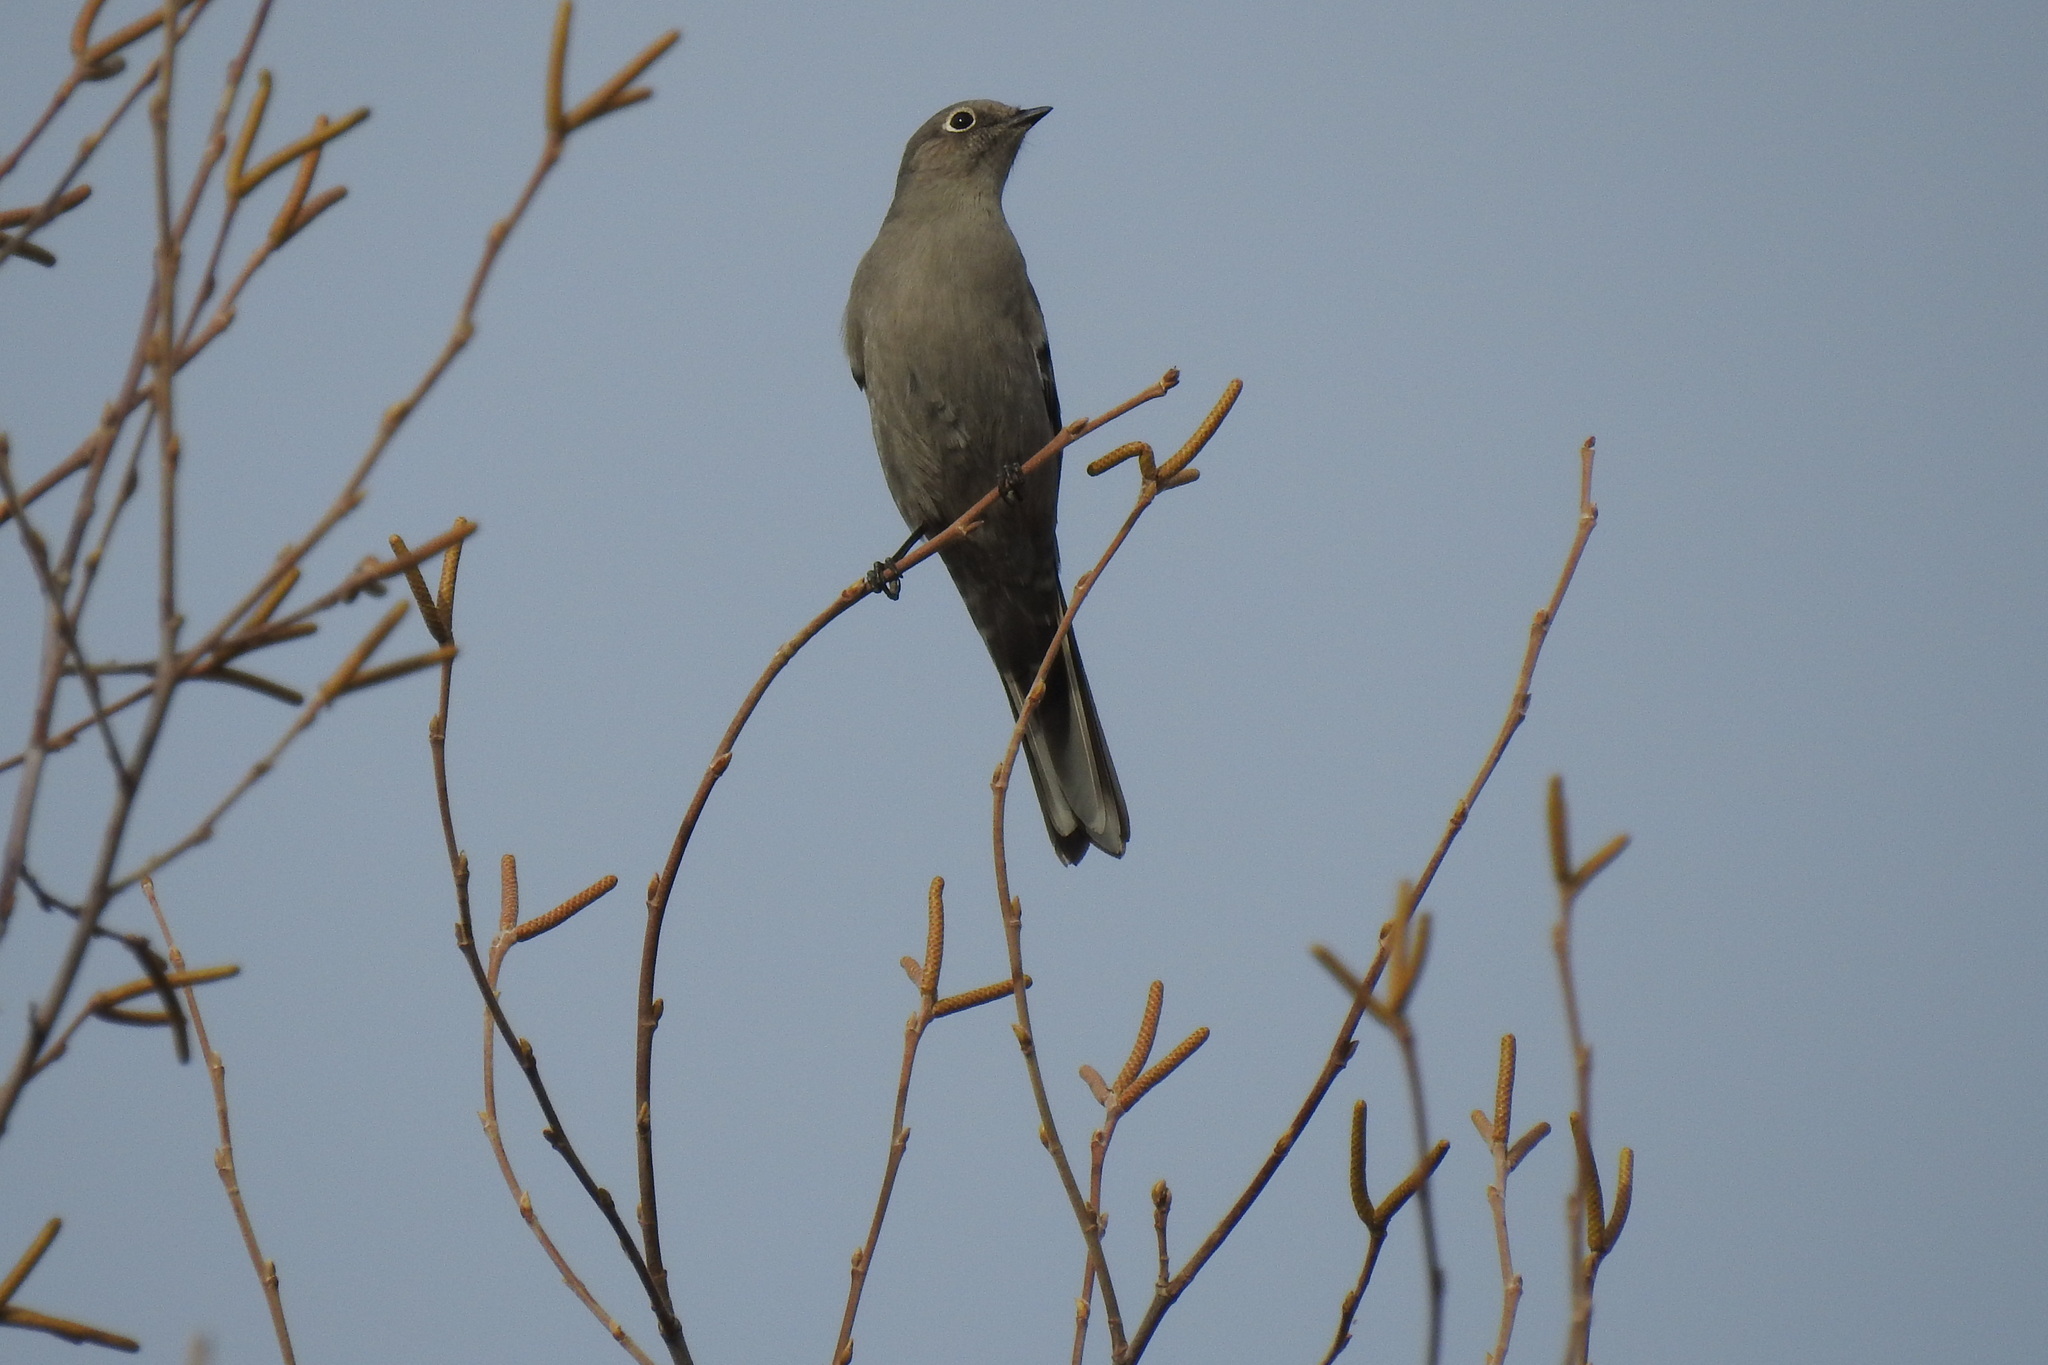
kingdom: Animalia
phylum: Chordata
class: Aves
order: Passeriformes
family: Turdidae
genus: Myadestes
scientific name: Myadestes townsendi
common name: Townsend's solitaire
